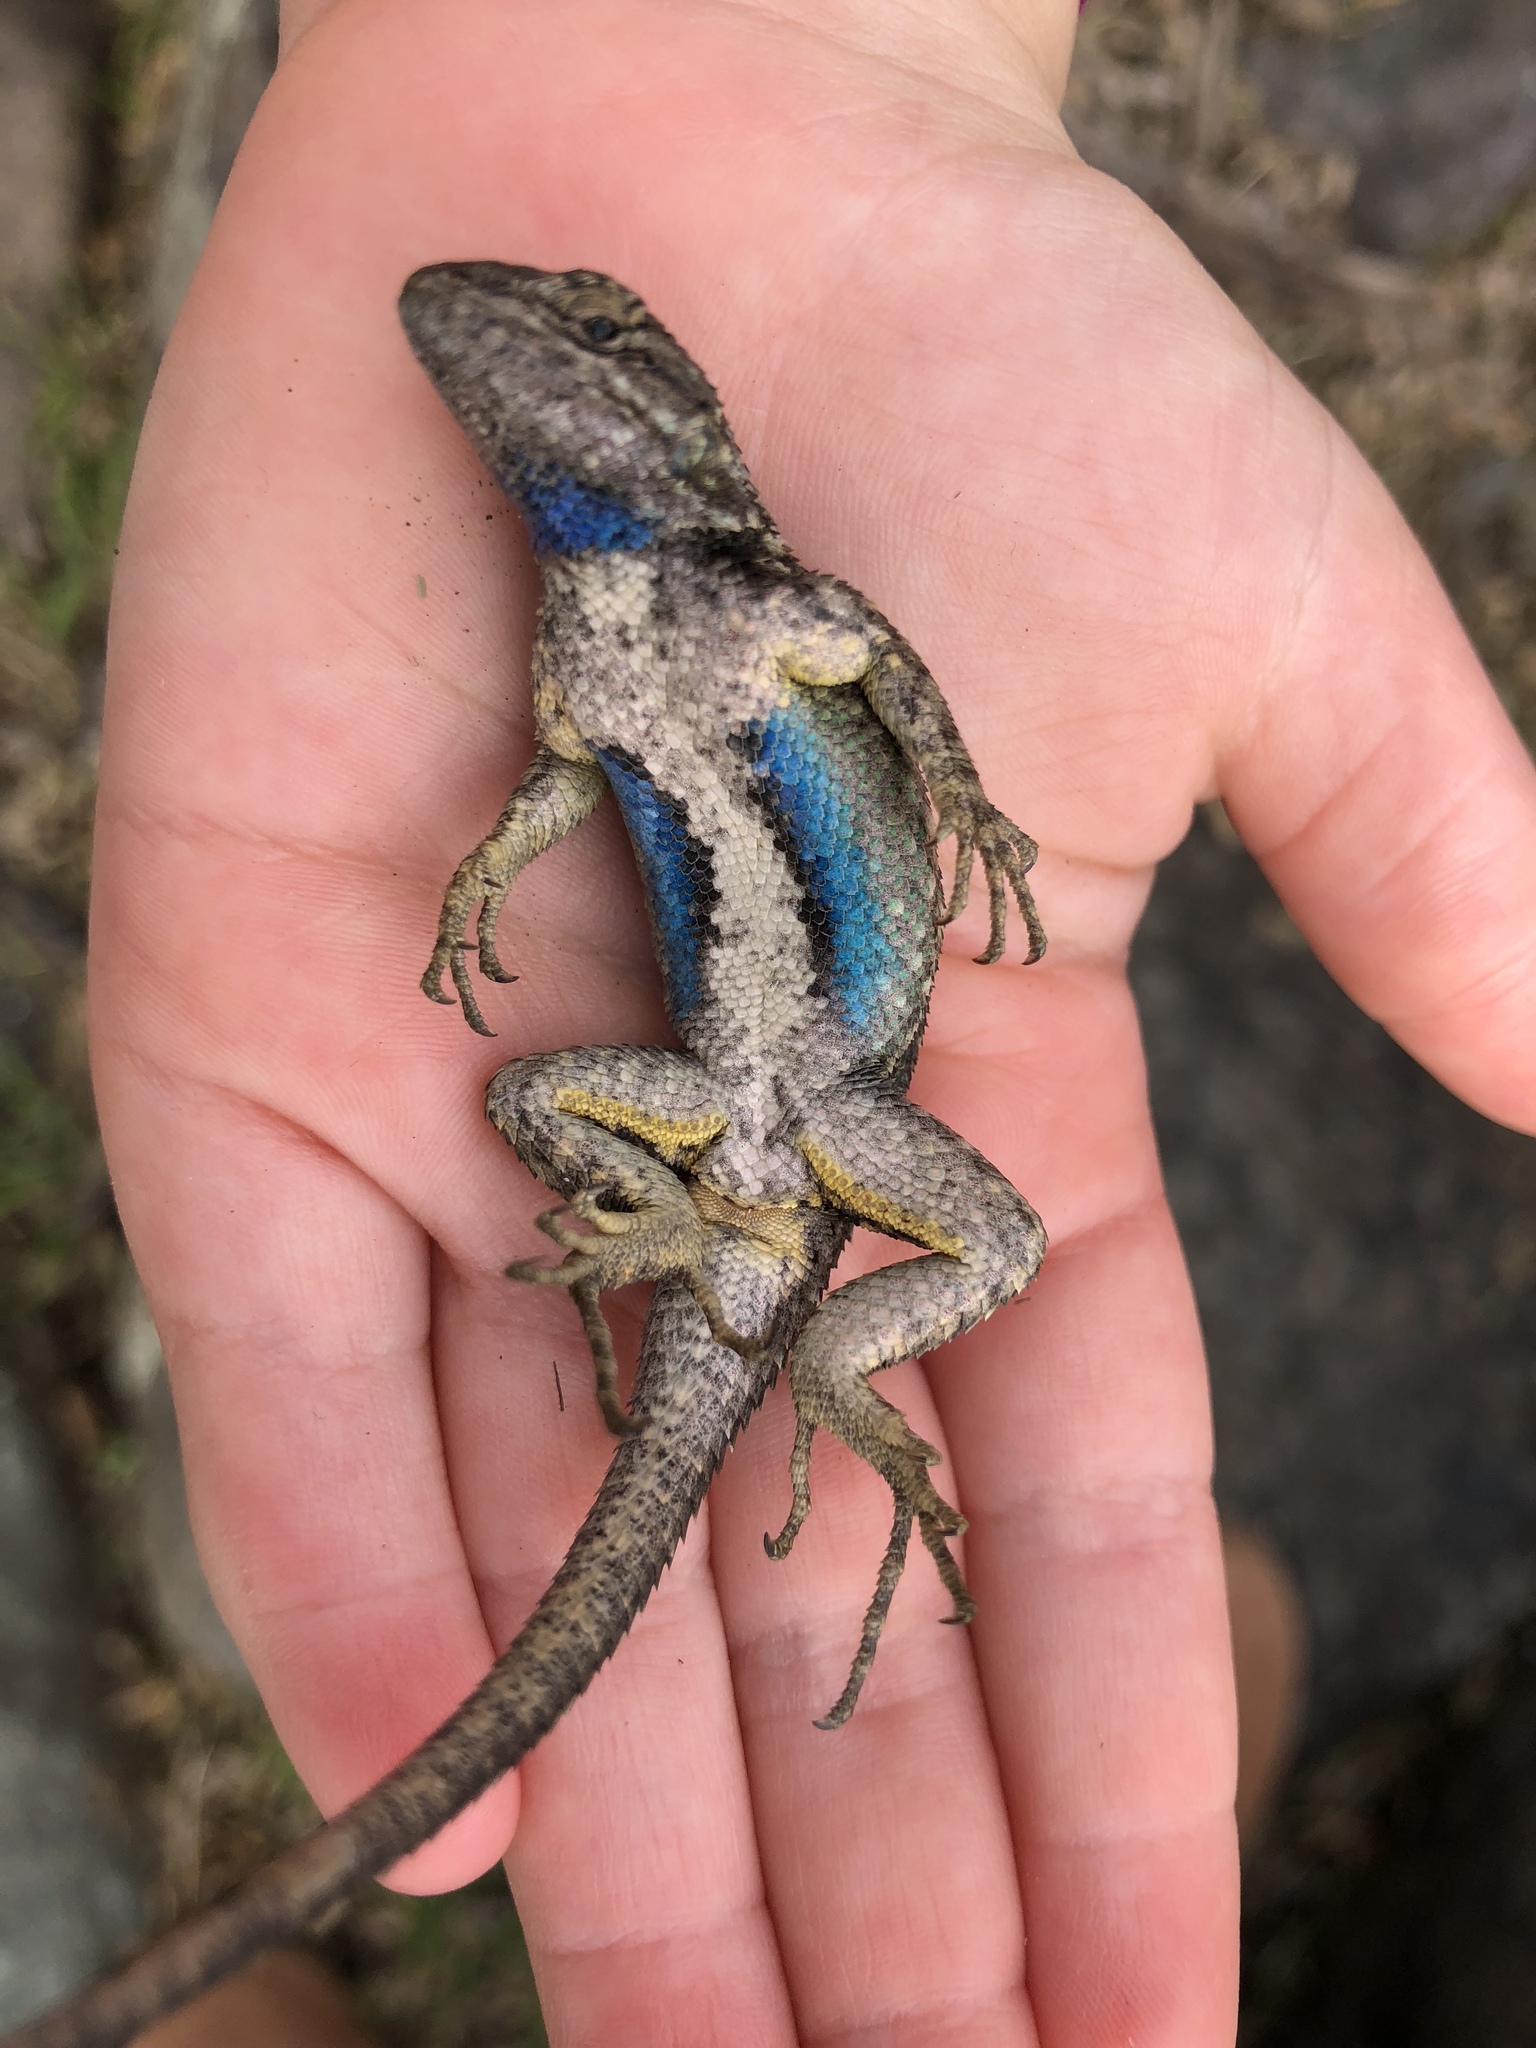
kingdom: Animalia
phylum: Chordata
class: Squamata
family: Phrynosomatidae
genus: Sceloporus
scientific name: Sceloporus occidentalis
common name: Western fence lizard
